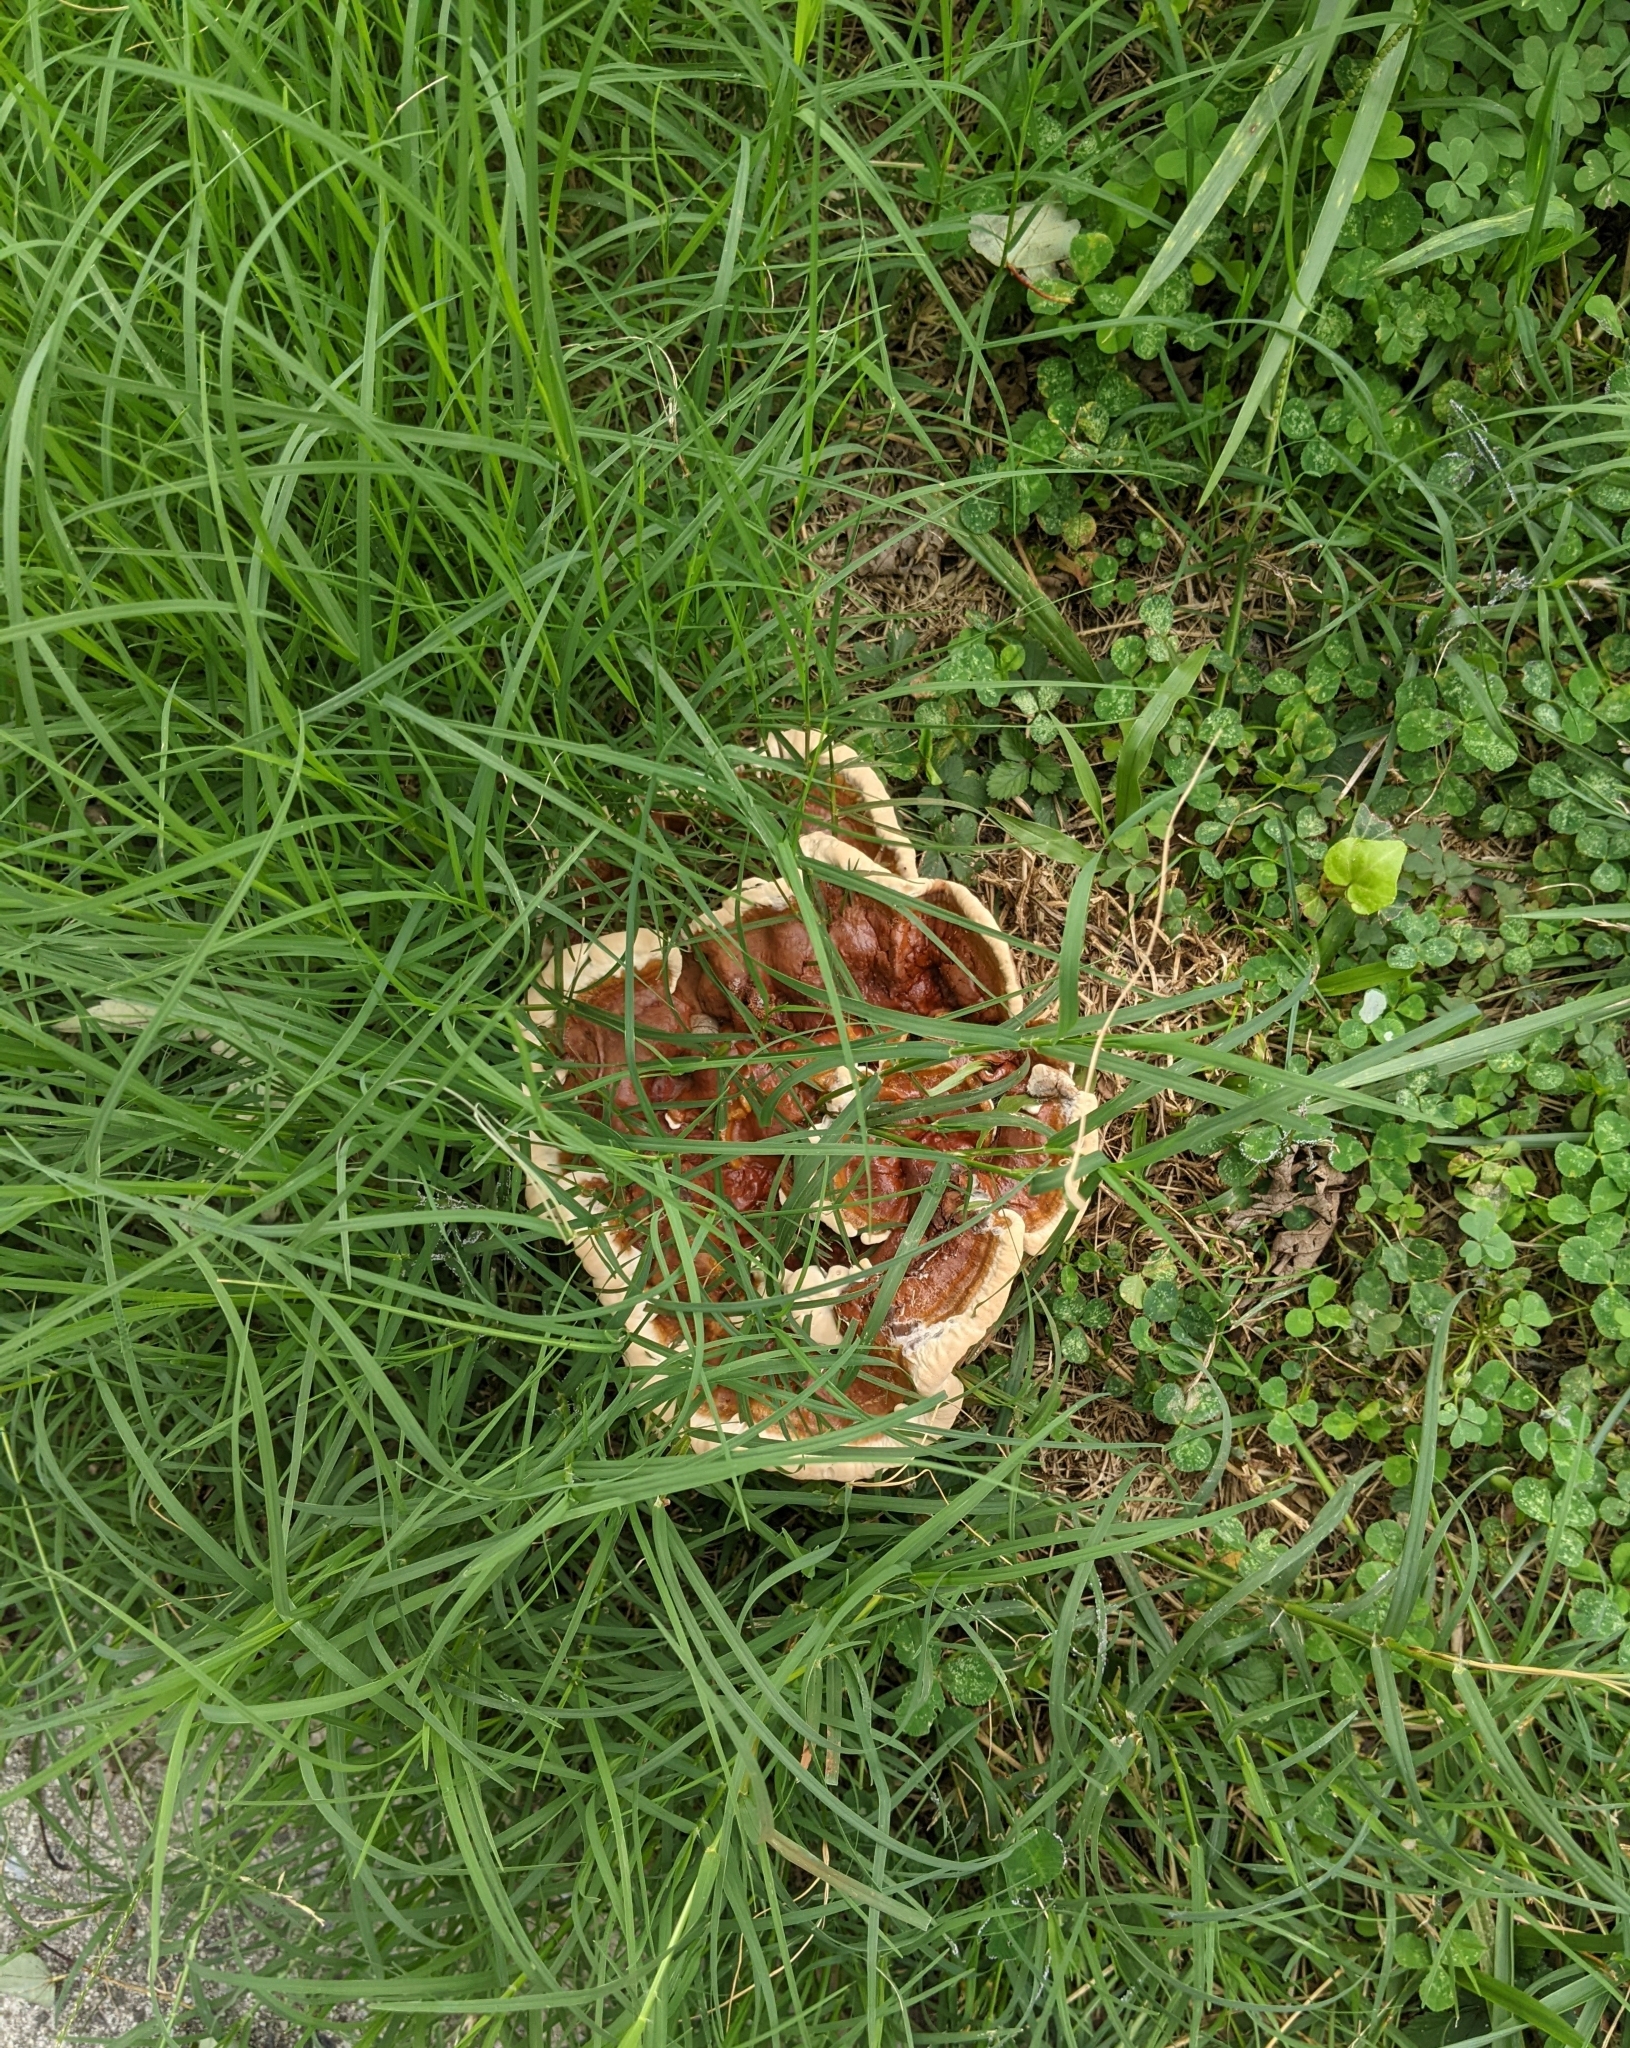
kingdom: Fungi
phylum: Basidiomycota
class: Agaricomycetes
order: Polyporales
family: Polyporaceae
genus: Ganoderma
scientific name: Ganoderma resinaceum
